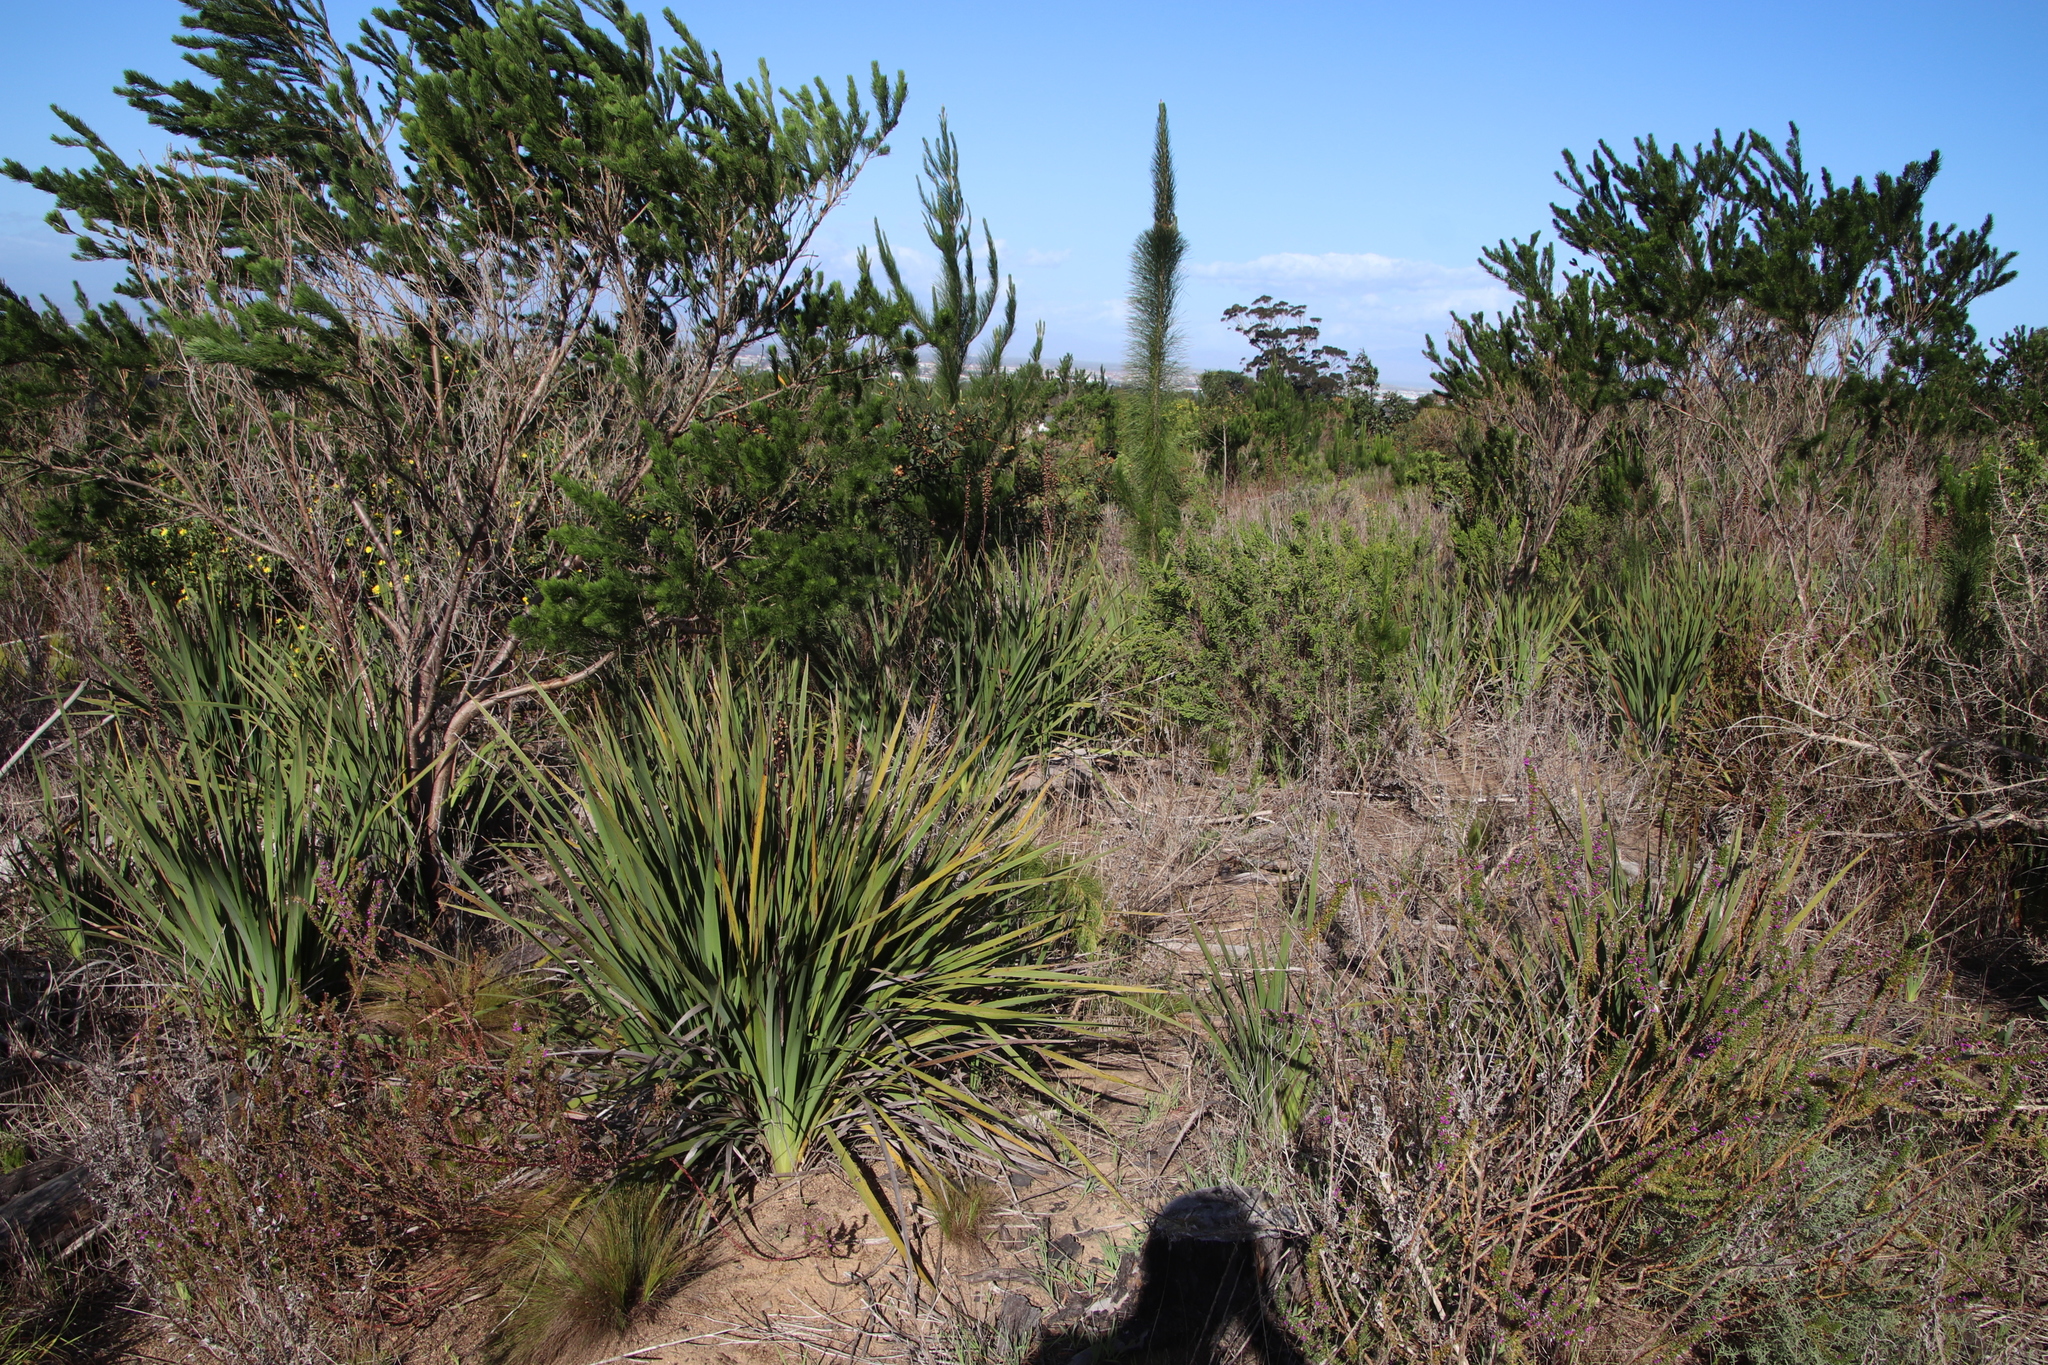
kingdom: Plantae
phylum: Tracheophyta
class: Liliopsida
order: Asparagales
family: Iridaceae
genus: Aristea
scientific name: Aristea bakeri
